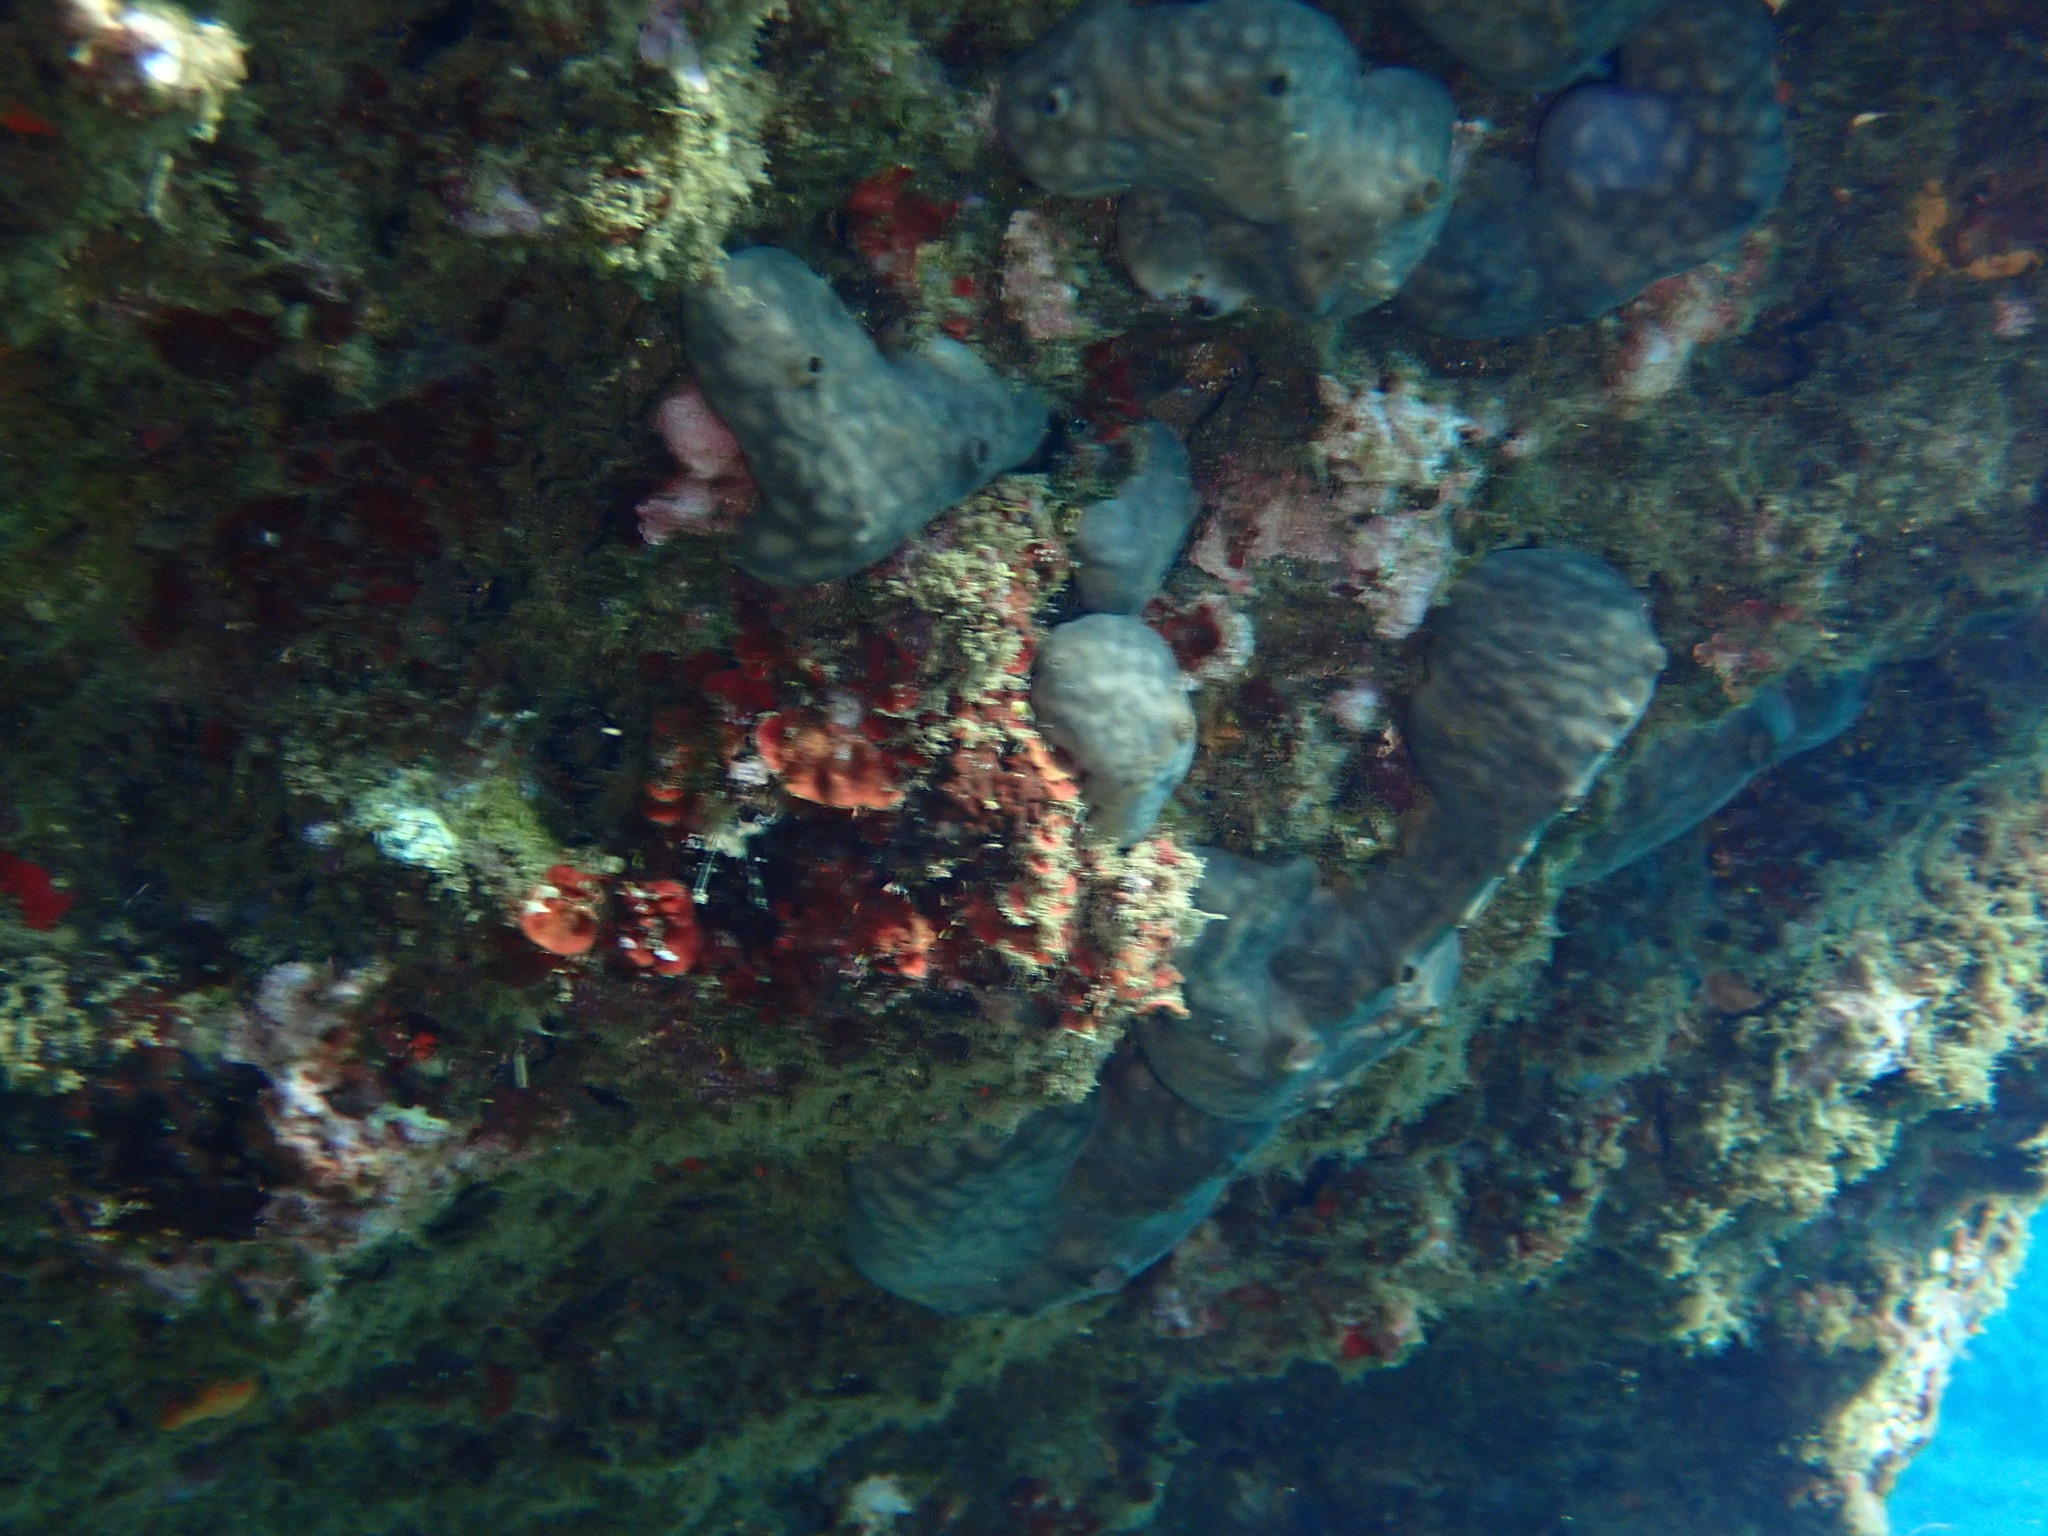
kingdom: Animalia
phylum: Porifera
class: Demospongiae
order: Chondrosiida
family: Chondrosiidae
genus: Chondrosia
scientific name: Chondrosia reniformis
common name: Chicken liver sponge
